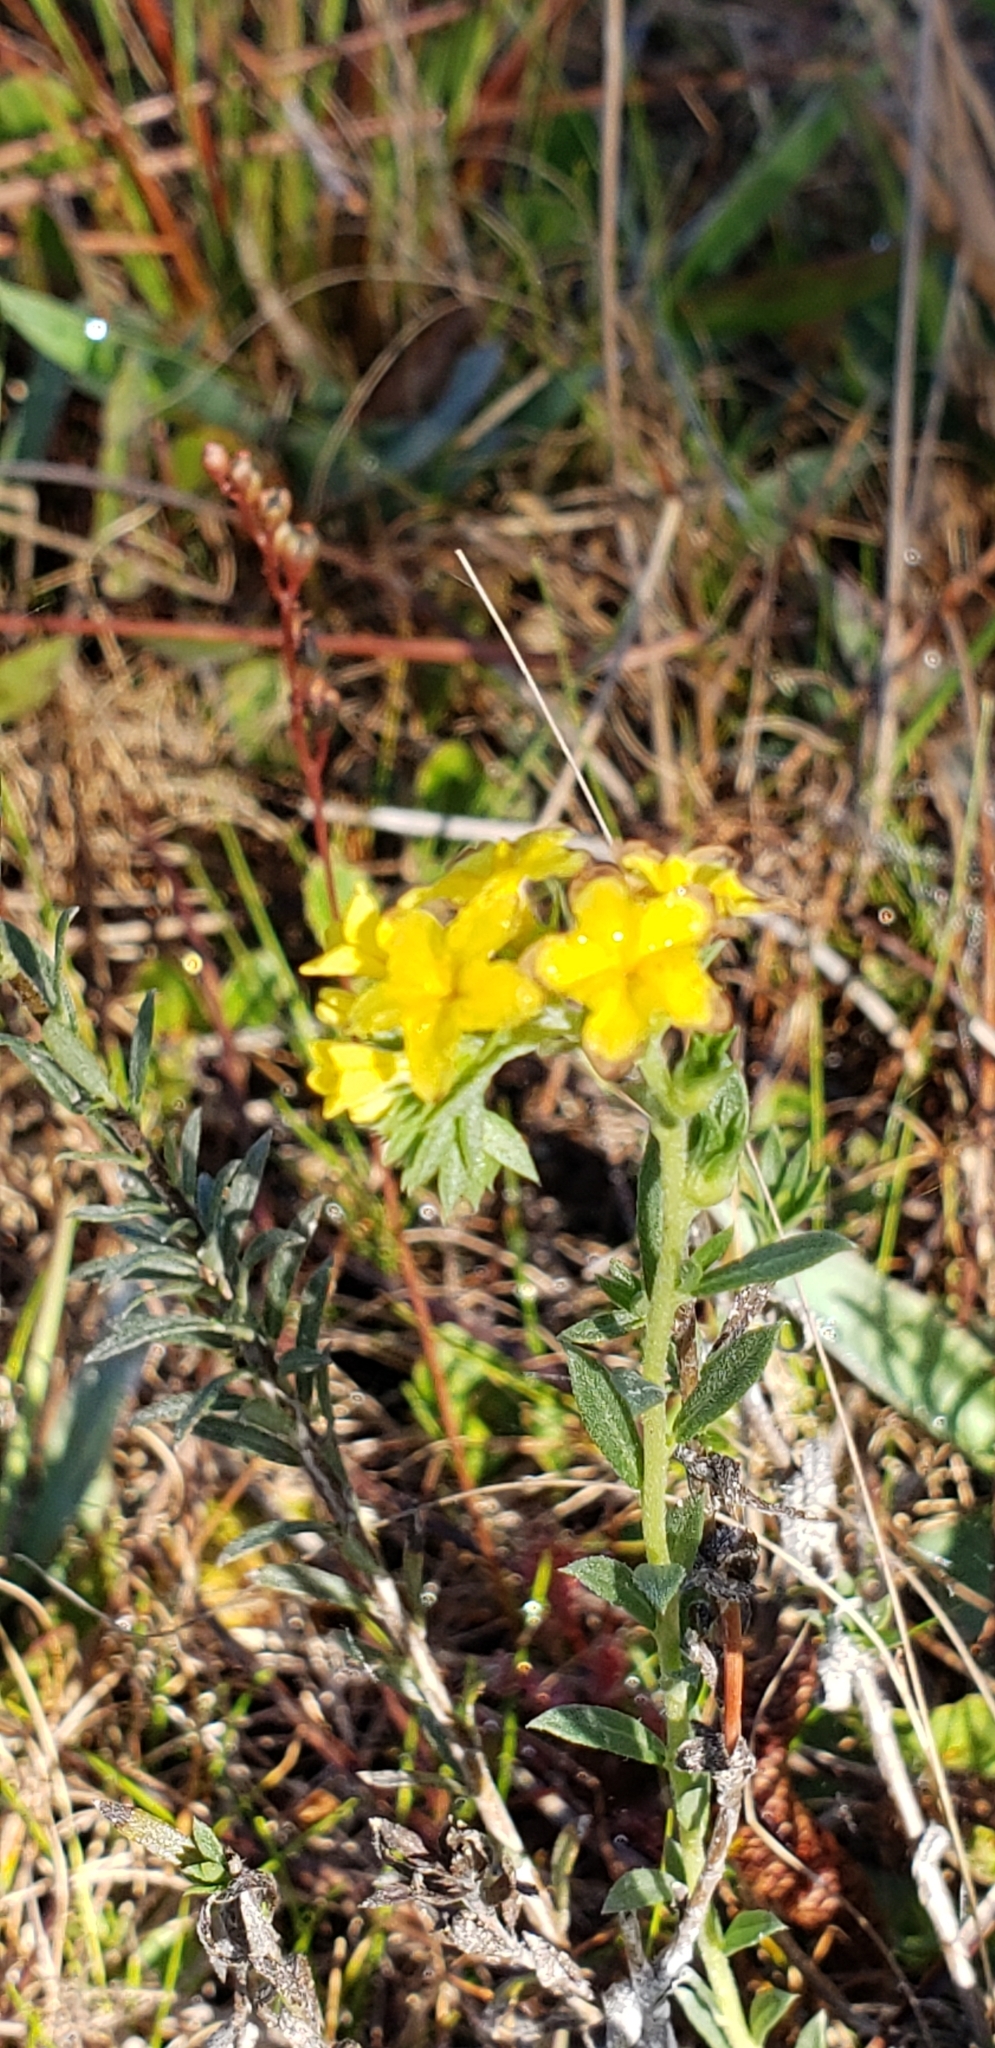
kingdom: Plantae
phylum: Tracheophyta
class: Magnoliopsida
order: Boraginales
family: Heliotropiaceae
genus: Euploca
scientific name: Euploca polyphylla
